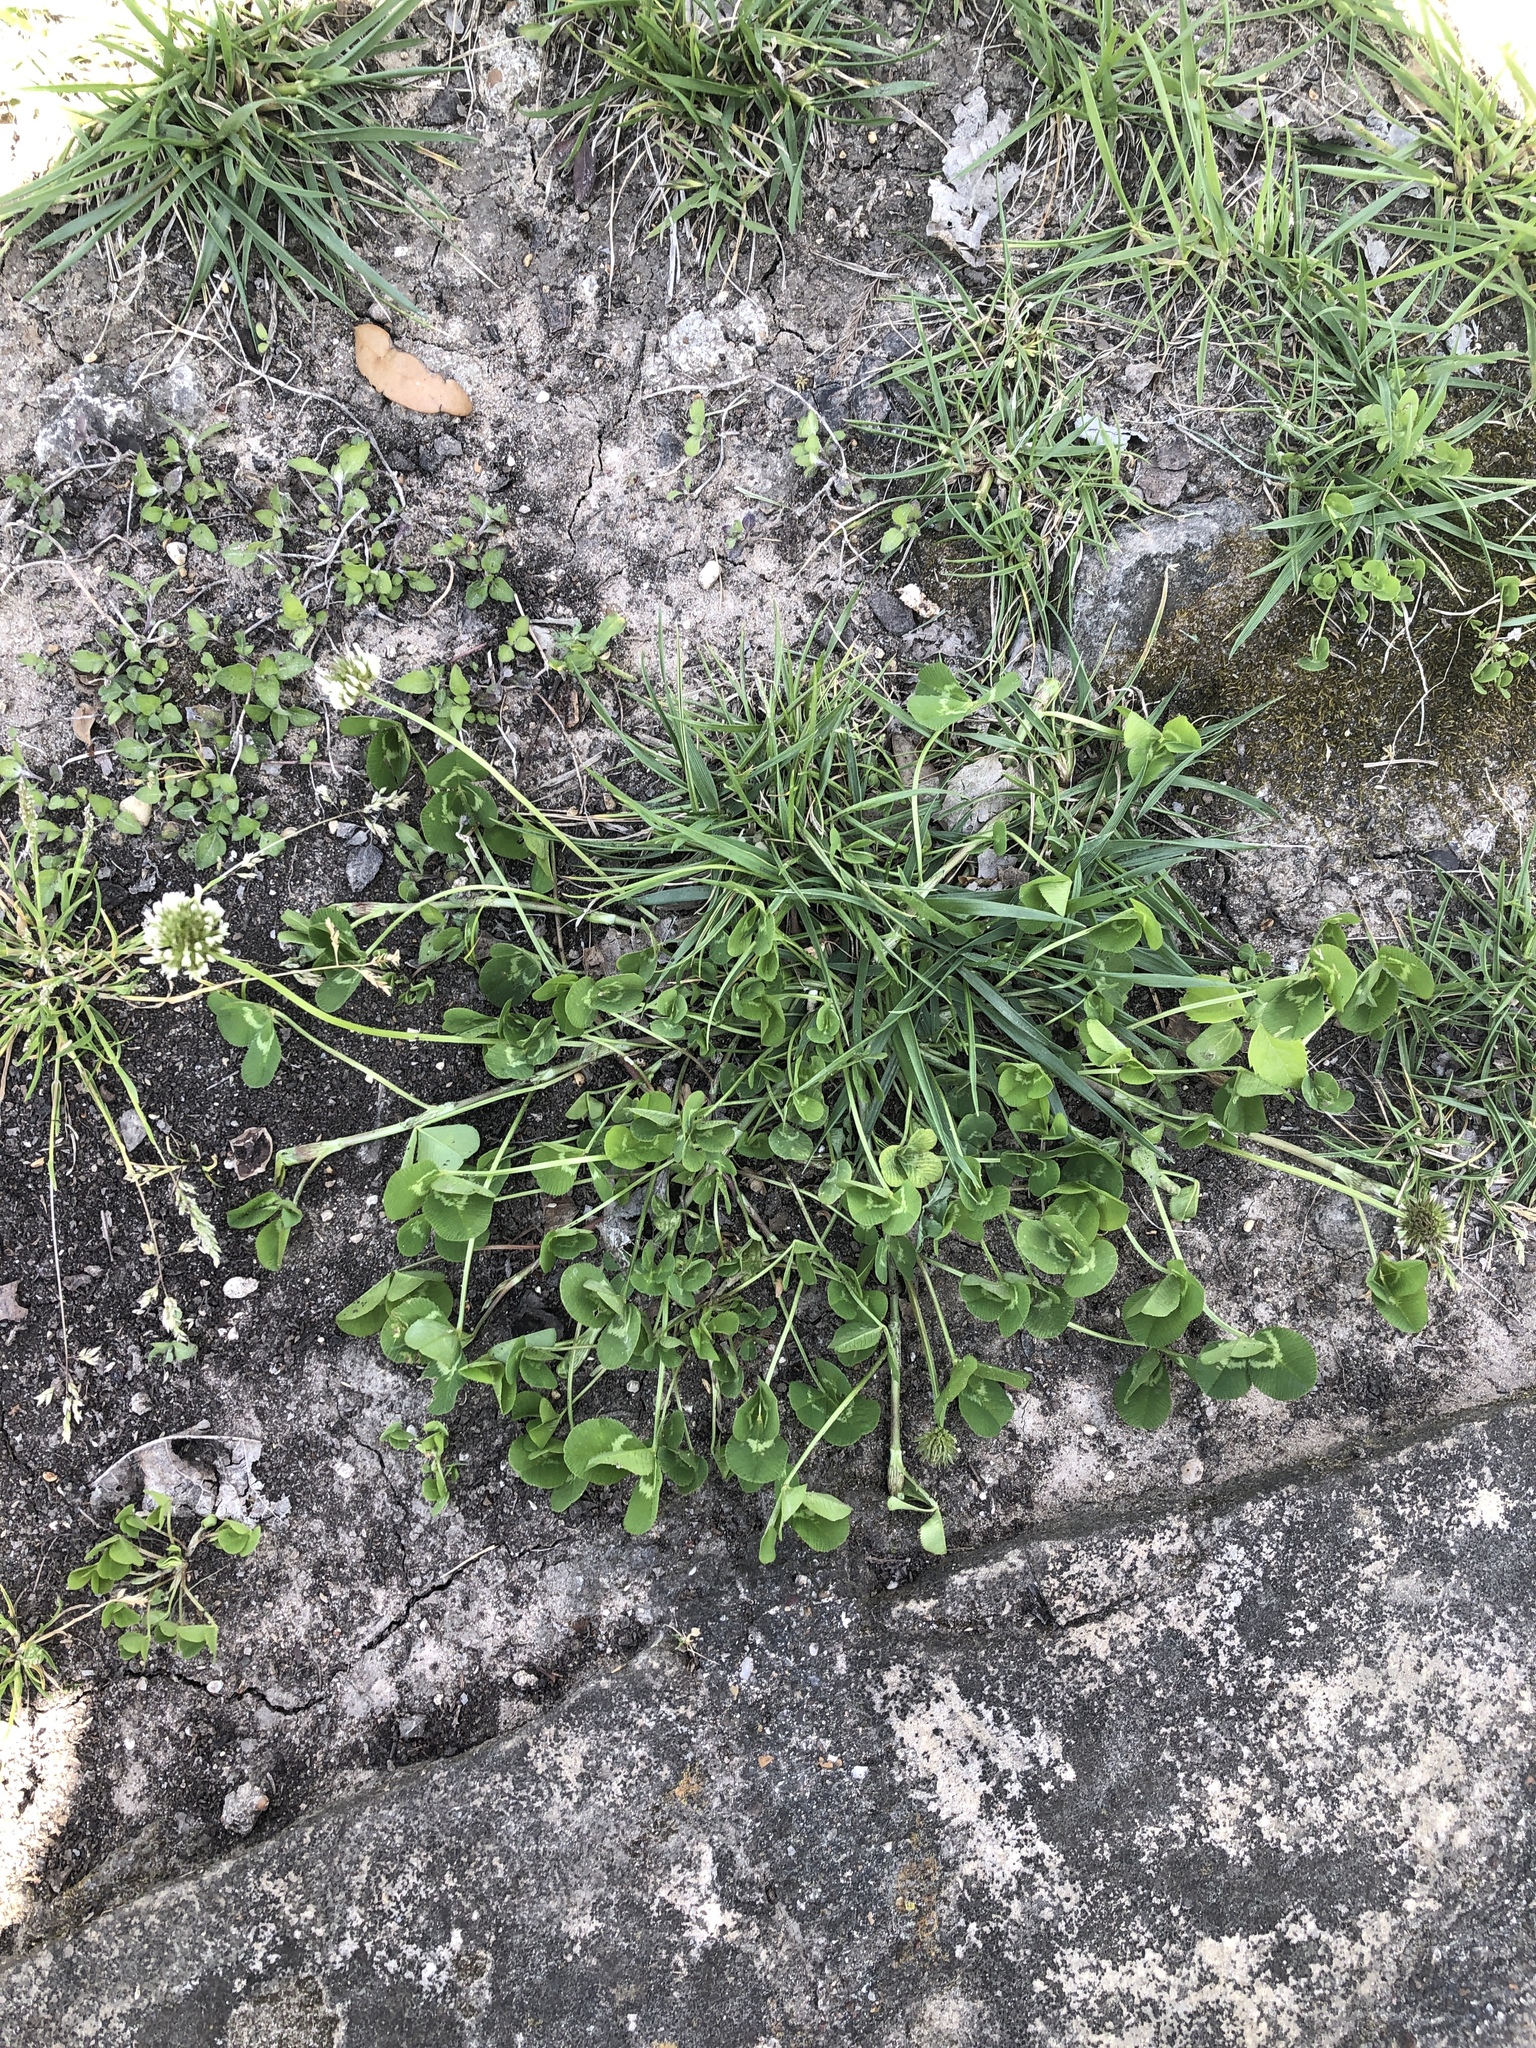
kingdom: Plantae
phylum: Tracheophyta
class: Magnoliopsida
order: Fabales
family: Fabaceae
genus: Trifolium
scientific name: Trifolium repens
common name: White clover
